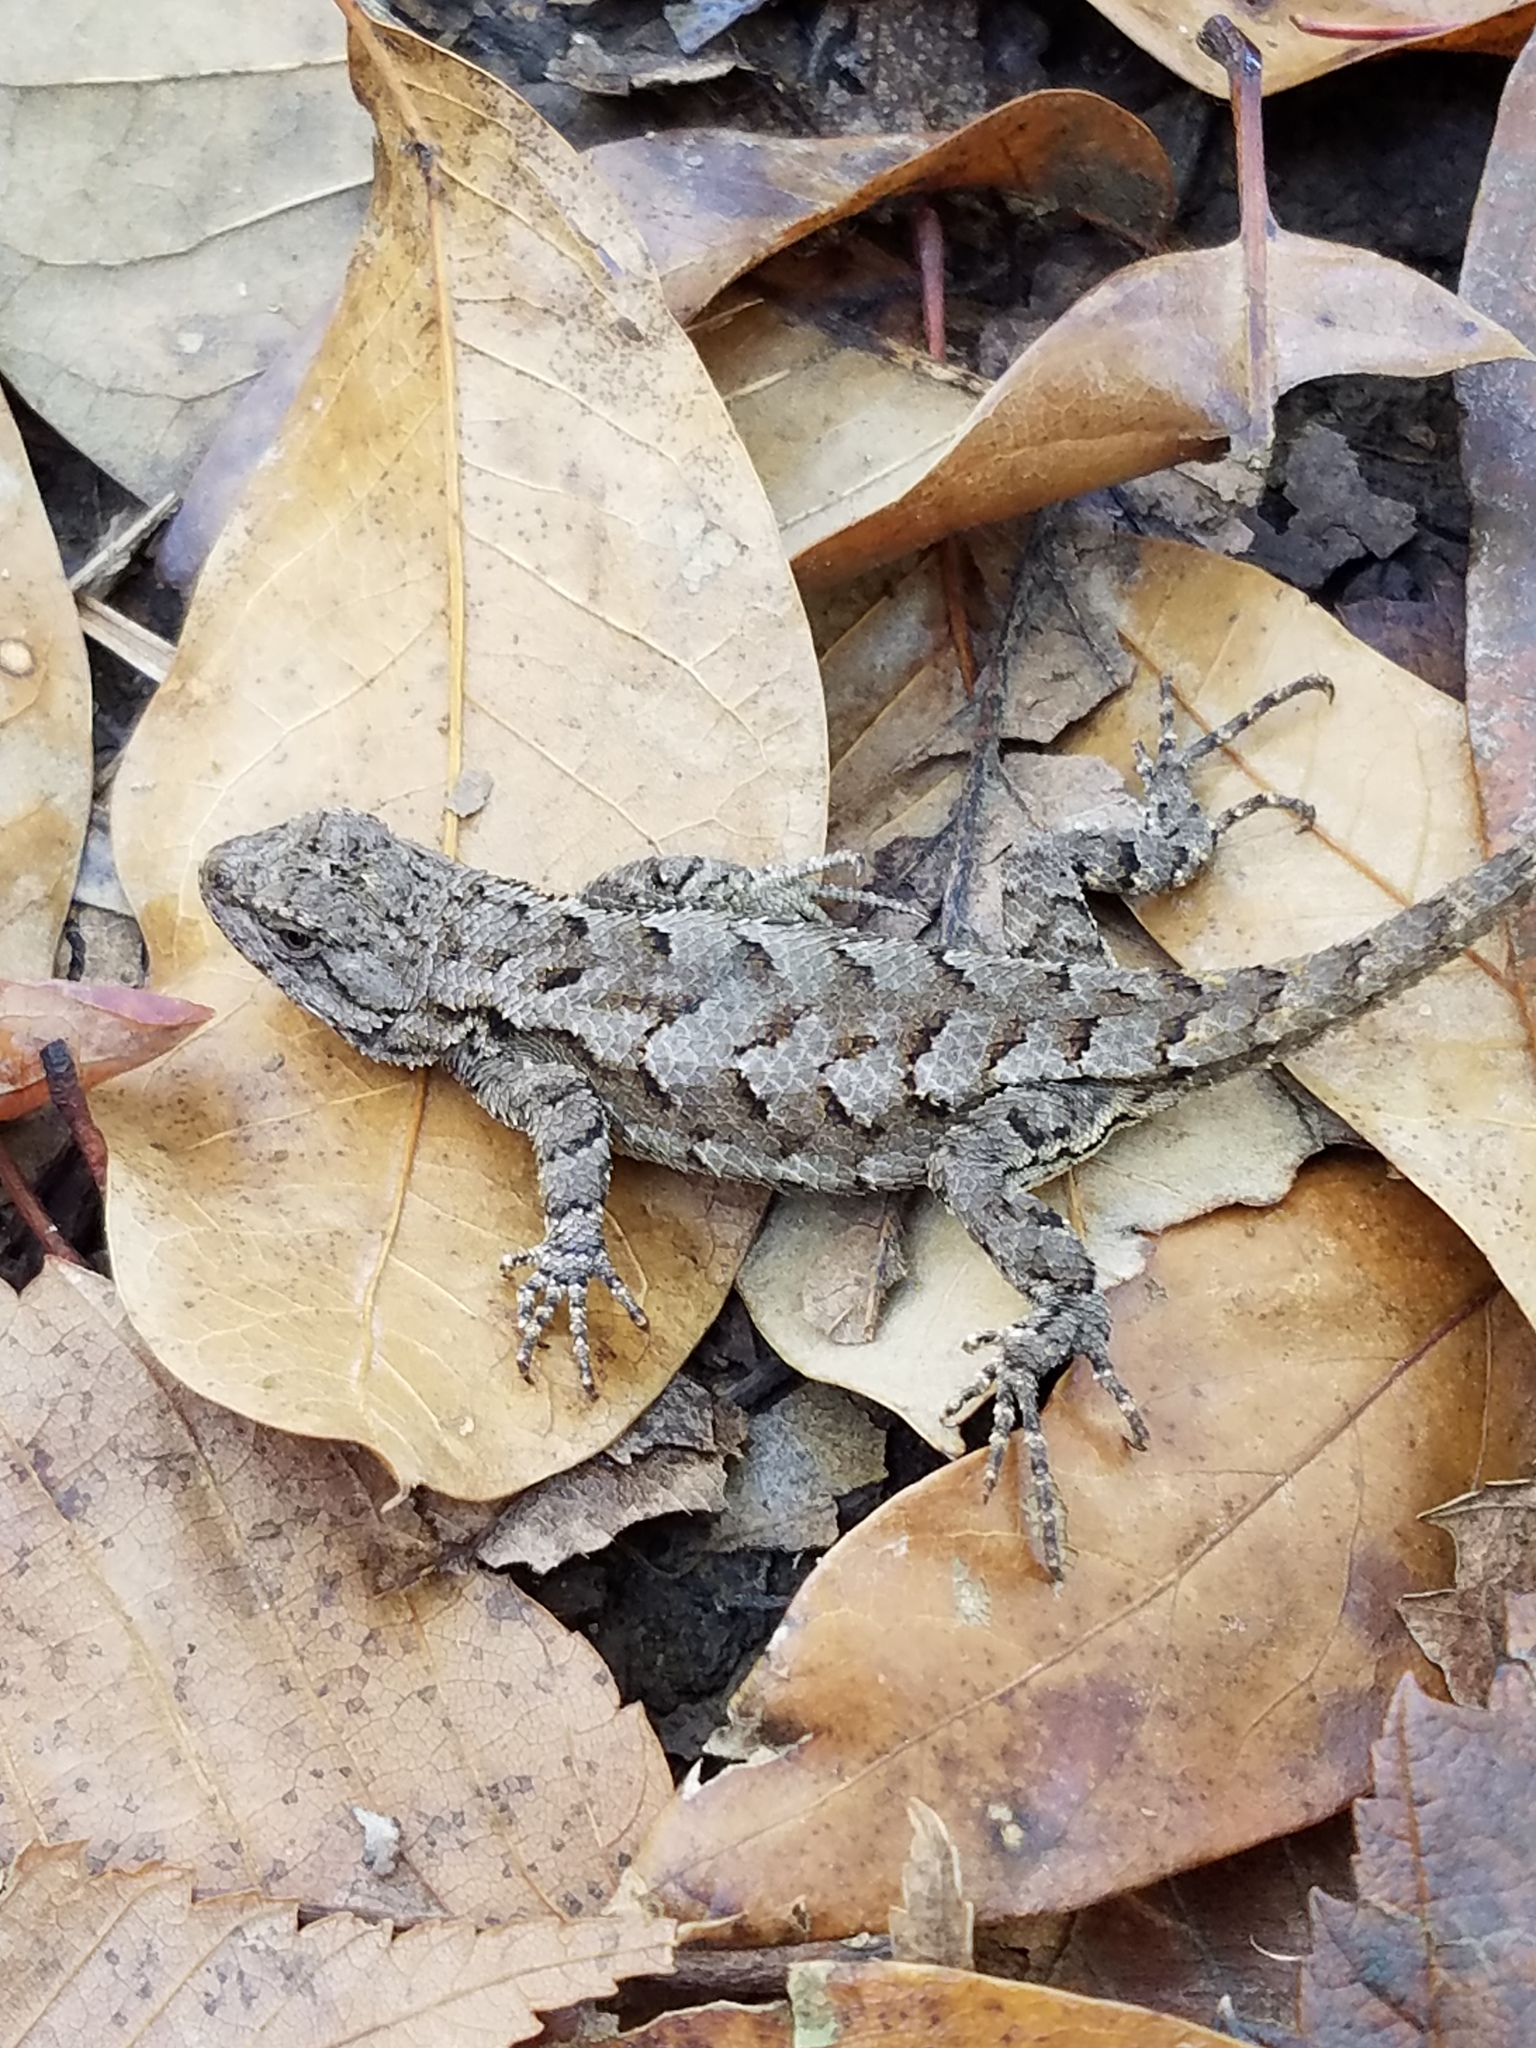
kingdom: Animalia
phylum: Chordata
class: Squamata
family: Phrynosomatidae
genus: Sceloporus
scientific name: Sceloporus consobrinus
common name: Southern prairie lizard
